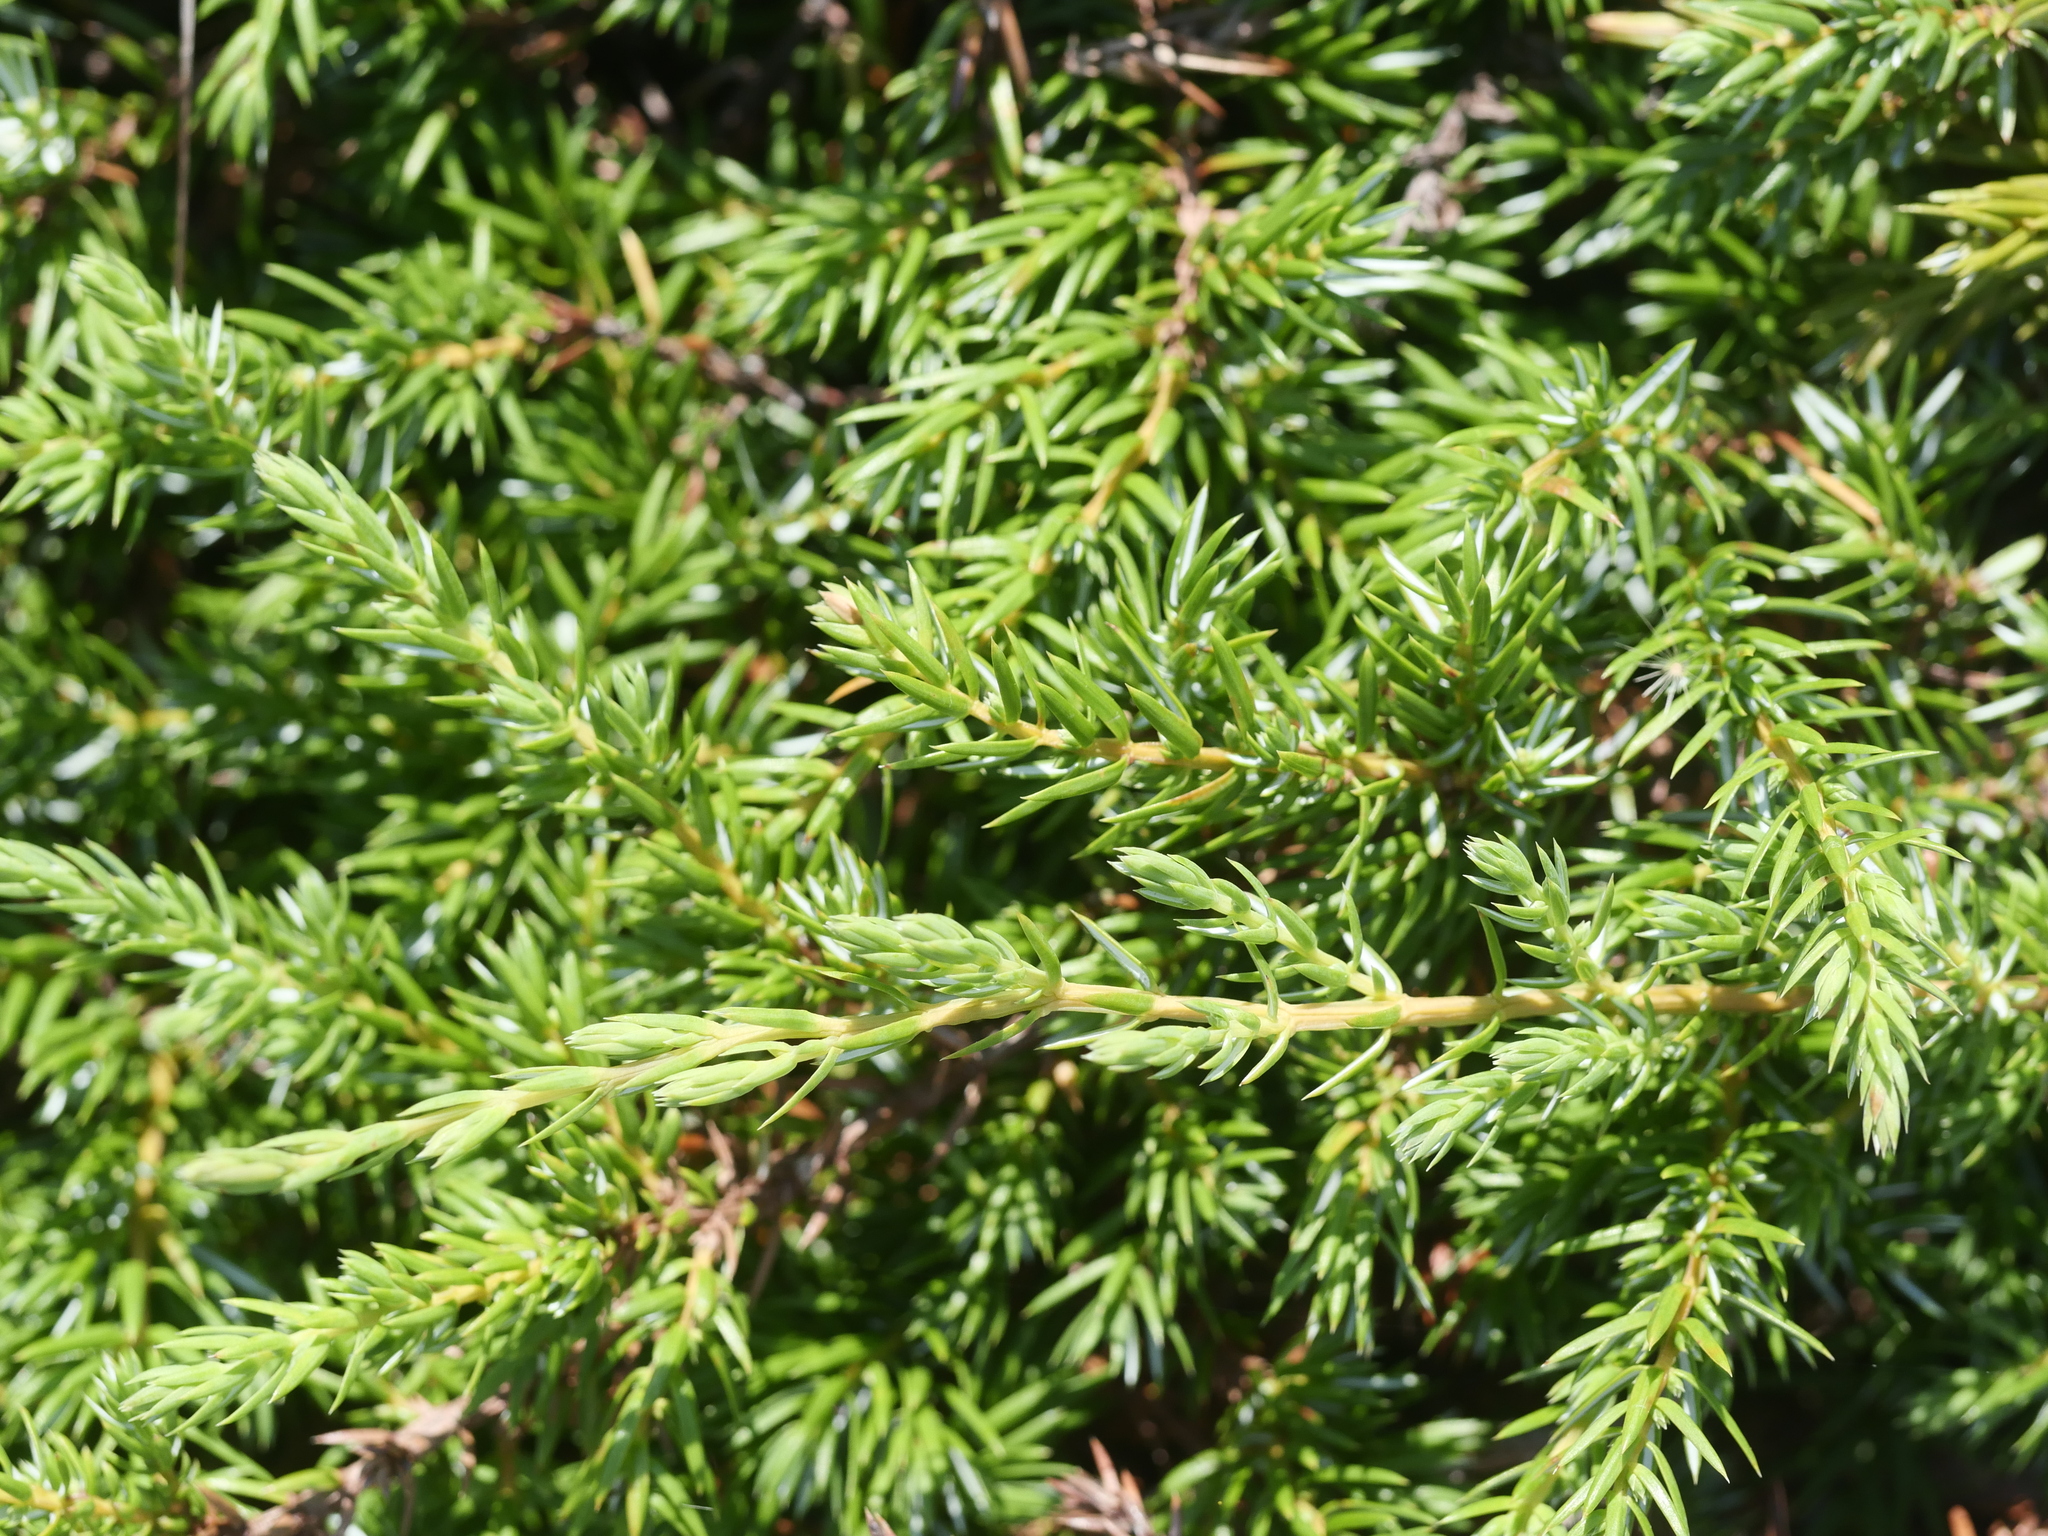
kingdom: Plantae
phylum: Tracheophyta
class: Pinopsida
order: Pinales
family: Cupressaceae
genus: Juniperus
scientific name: Juniperus communis
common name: Common juniper
